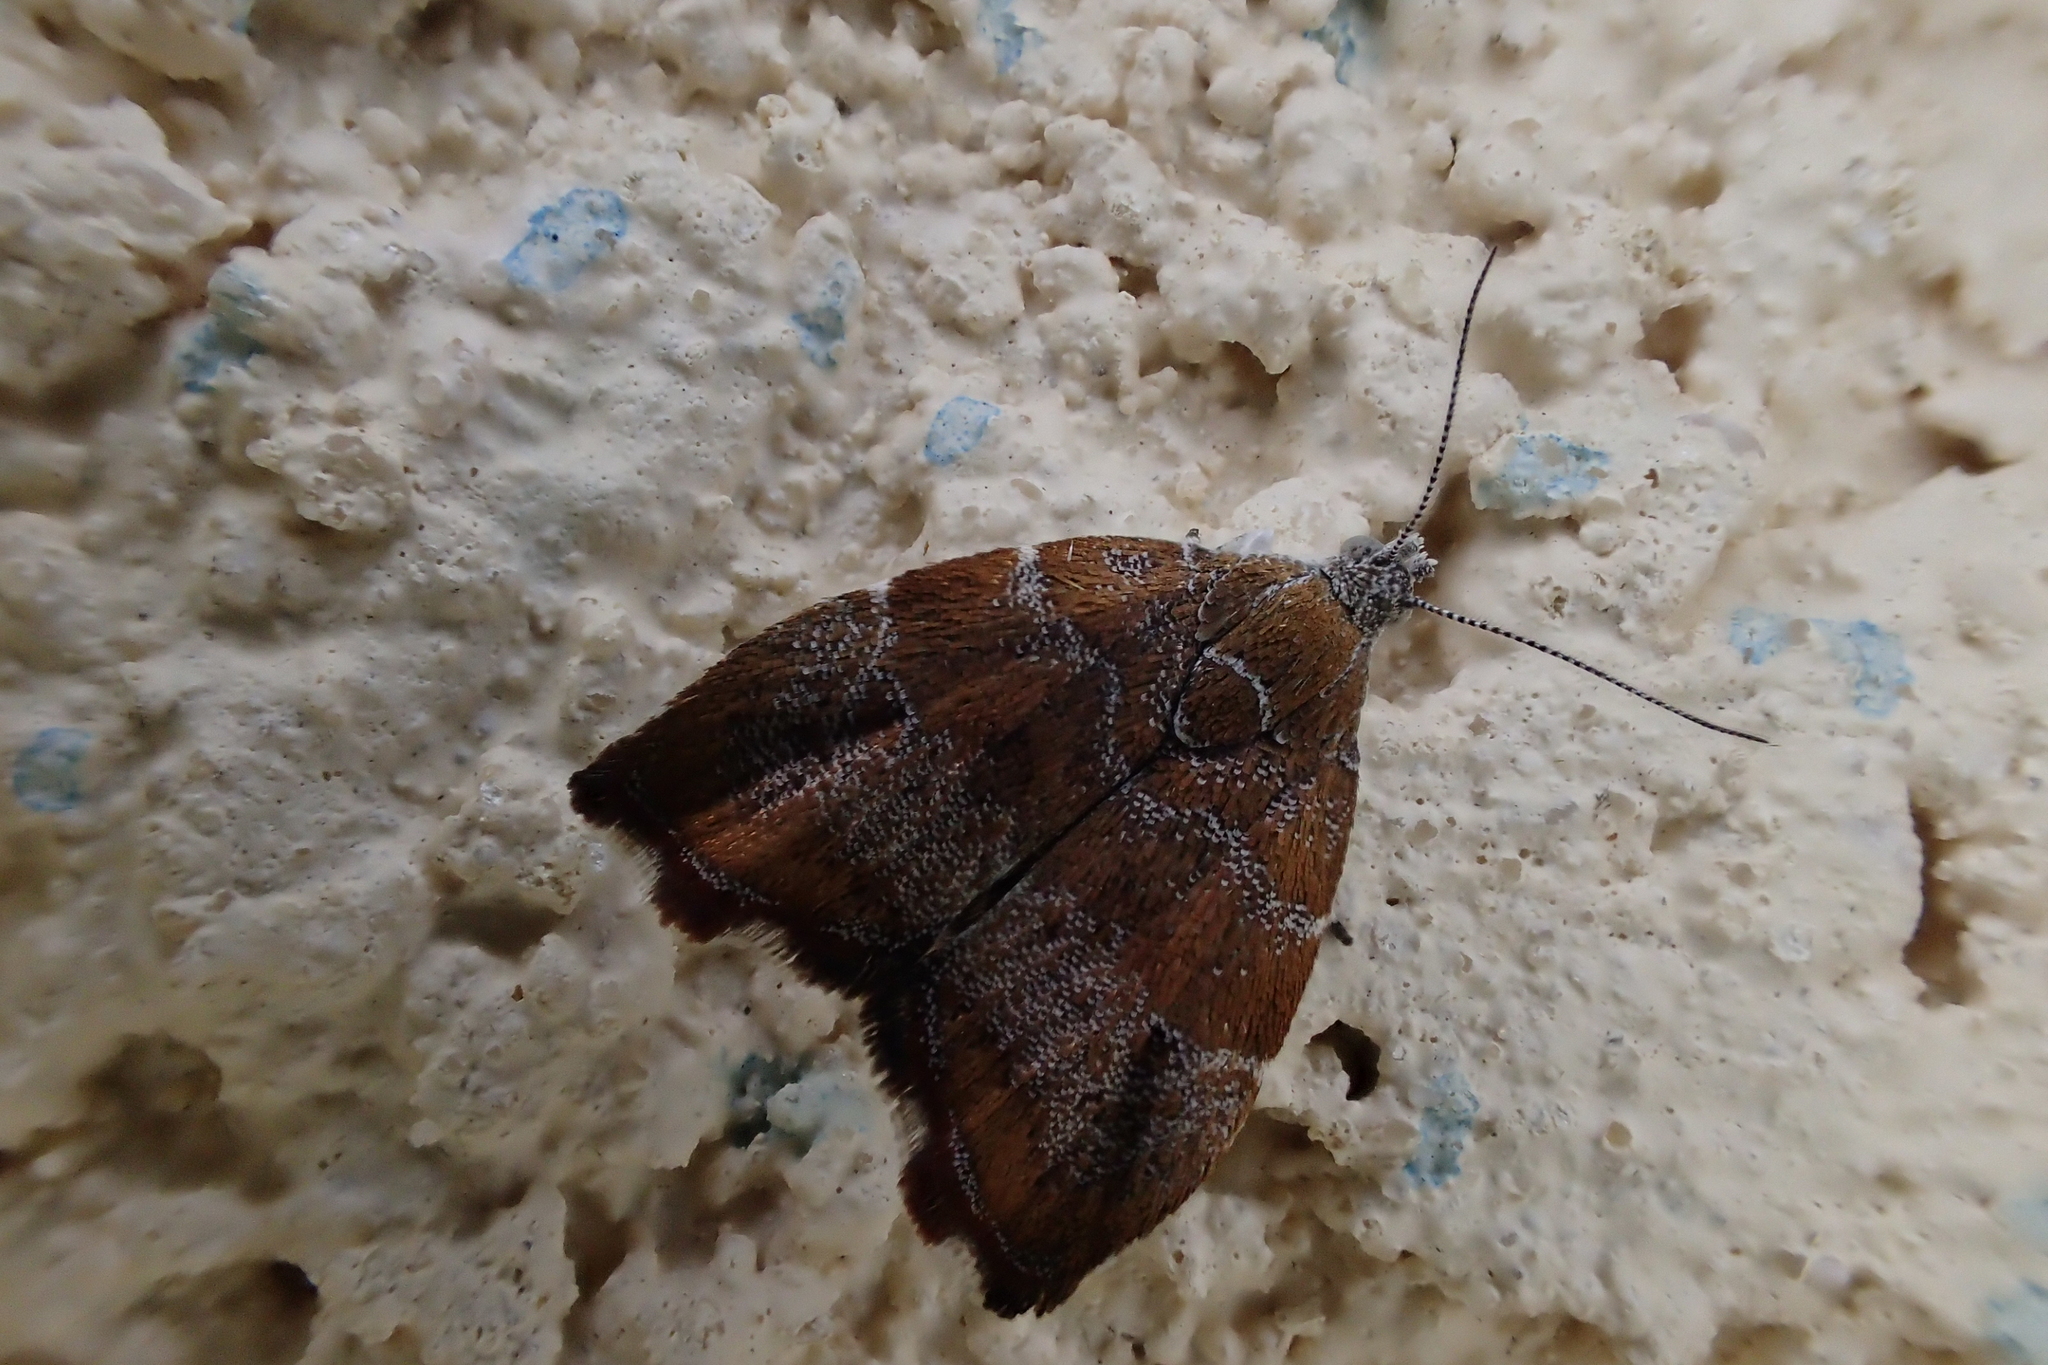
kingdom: Animalia
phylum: Arthropoda
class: Insecta
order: Lepidoptera
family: Choreutidae
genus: Anthophila
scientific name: Anthophila nemorana
